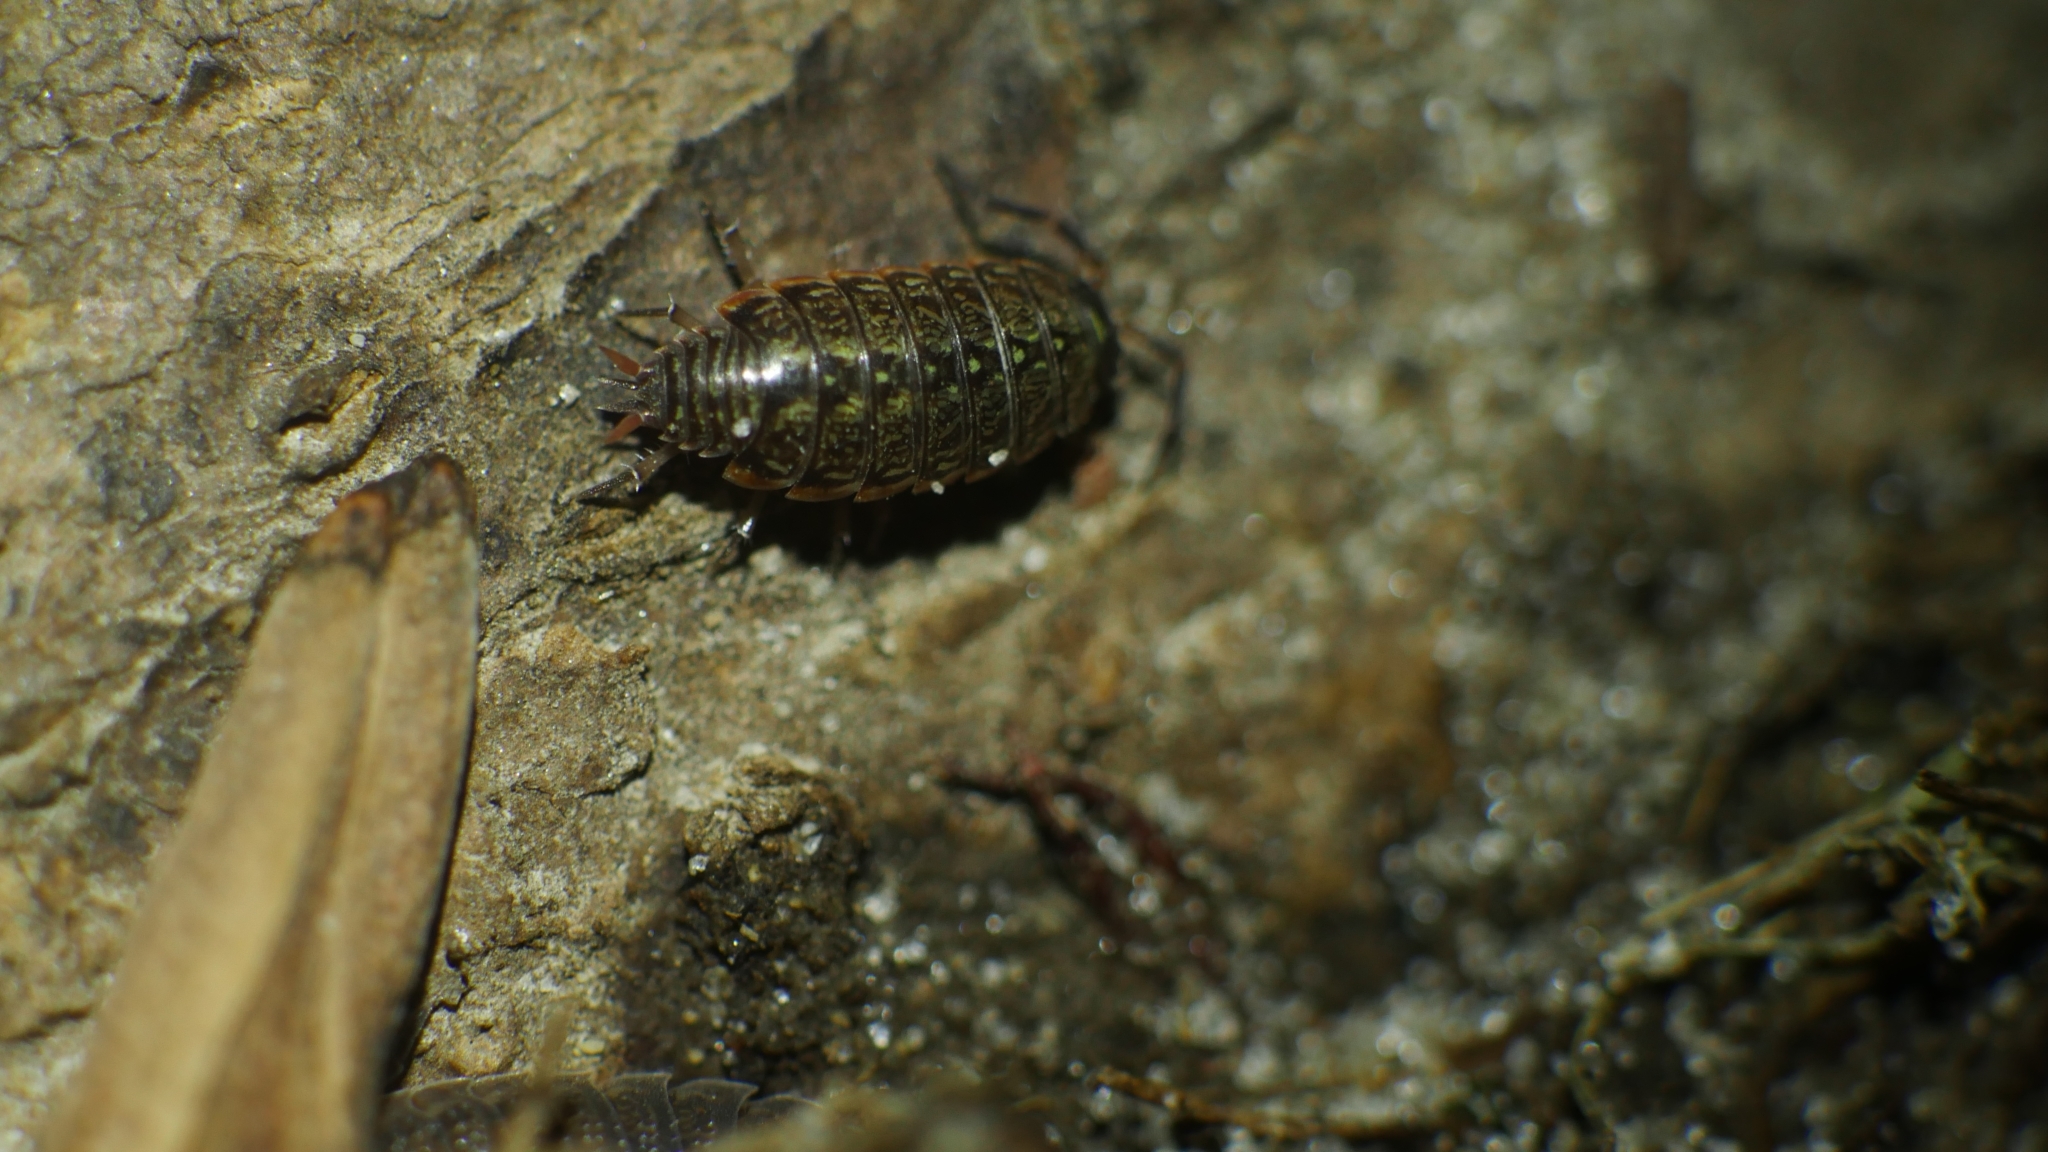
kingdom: Animalia
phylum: Arthropoda
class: Malacostraca
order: Isopoda
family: Philosciidae
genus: Philoscia
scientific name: Philoscia muscorum
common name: Common striped woodlouse
